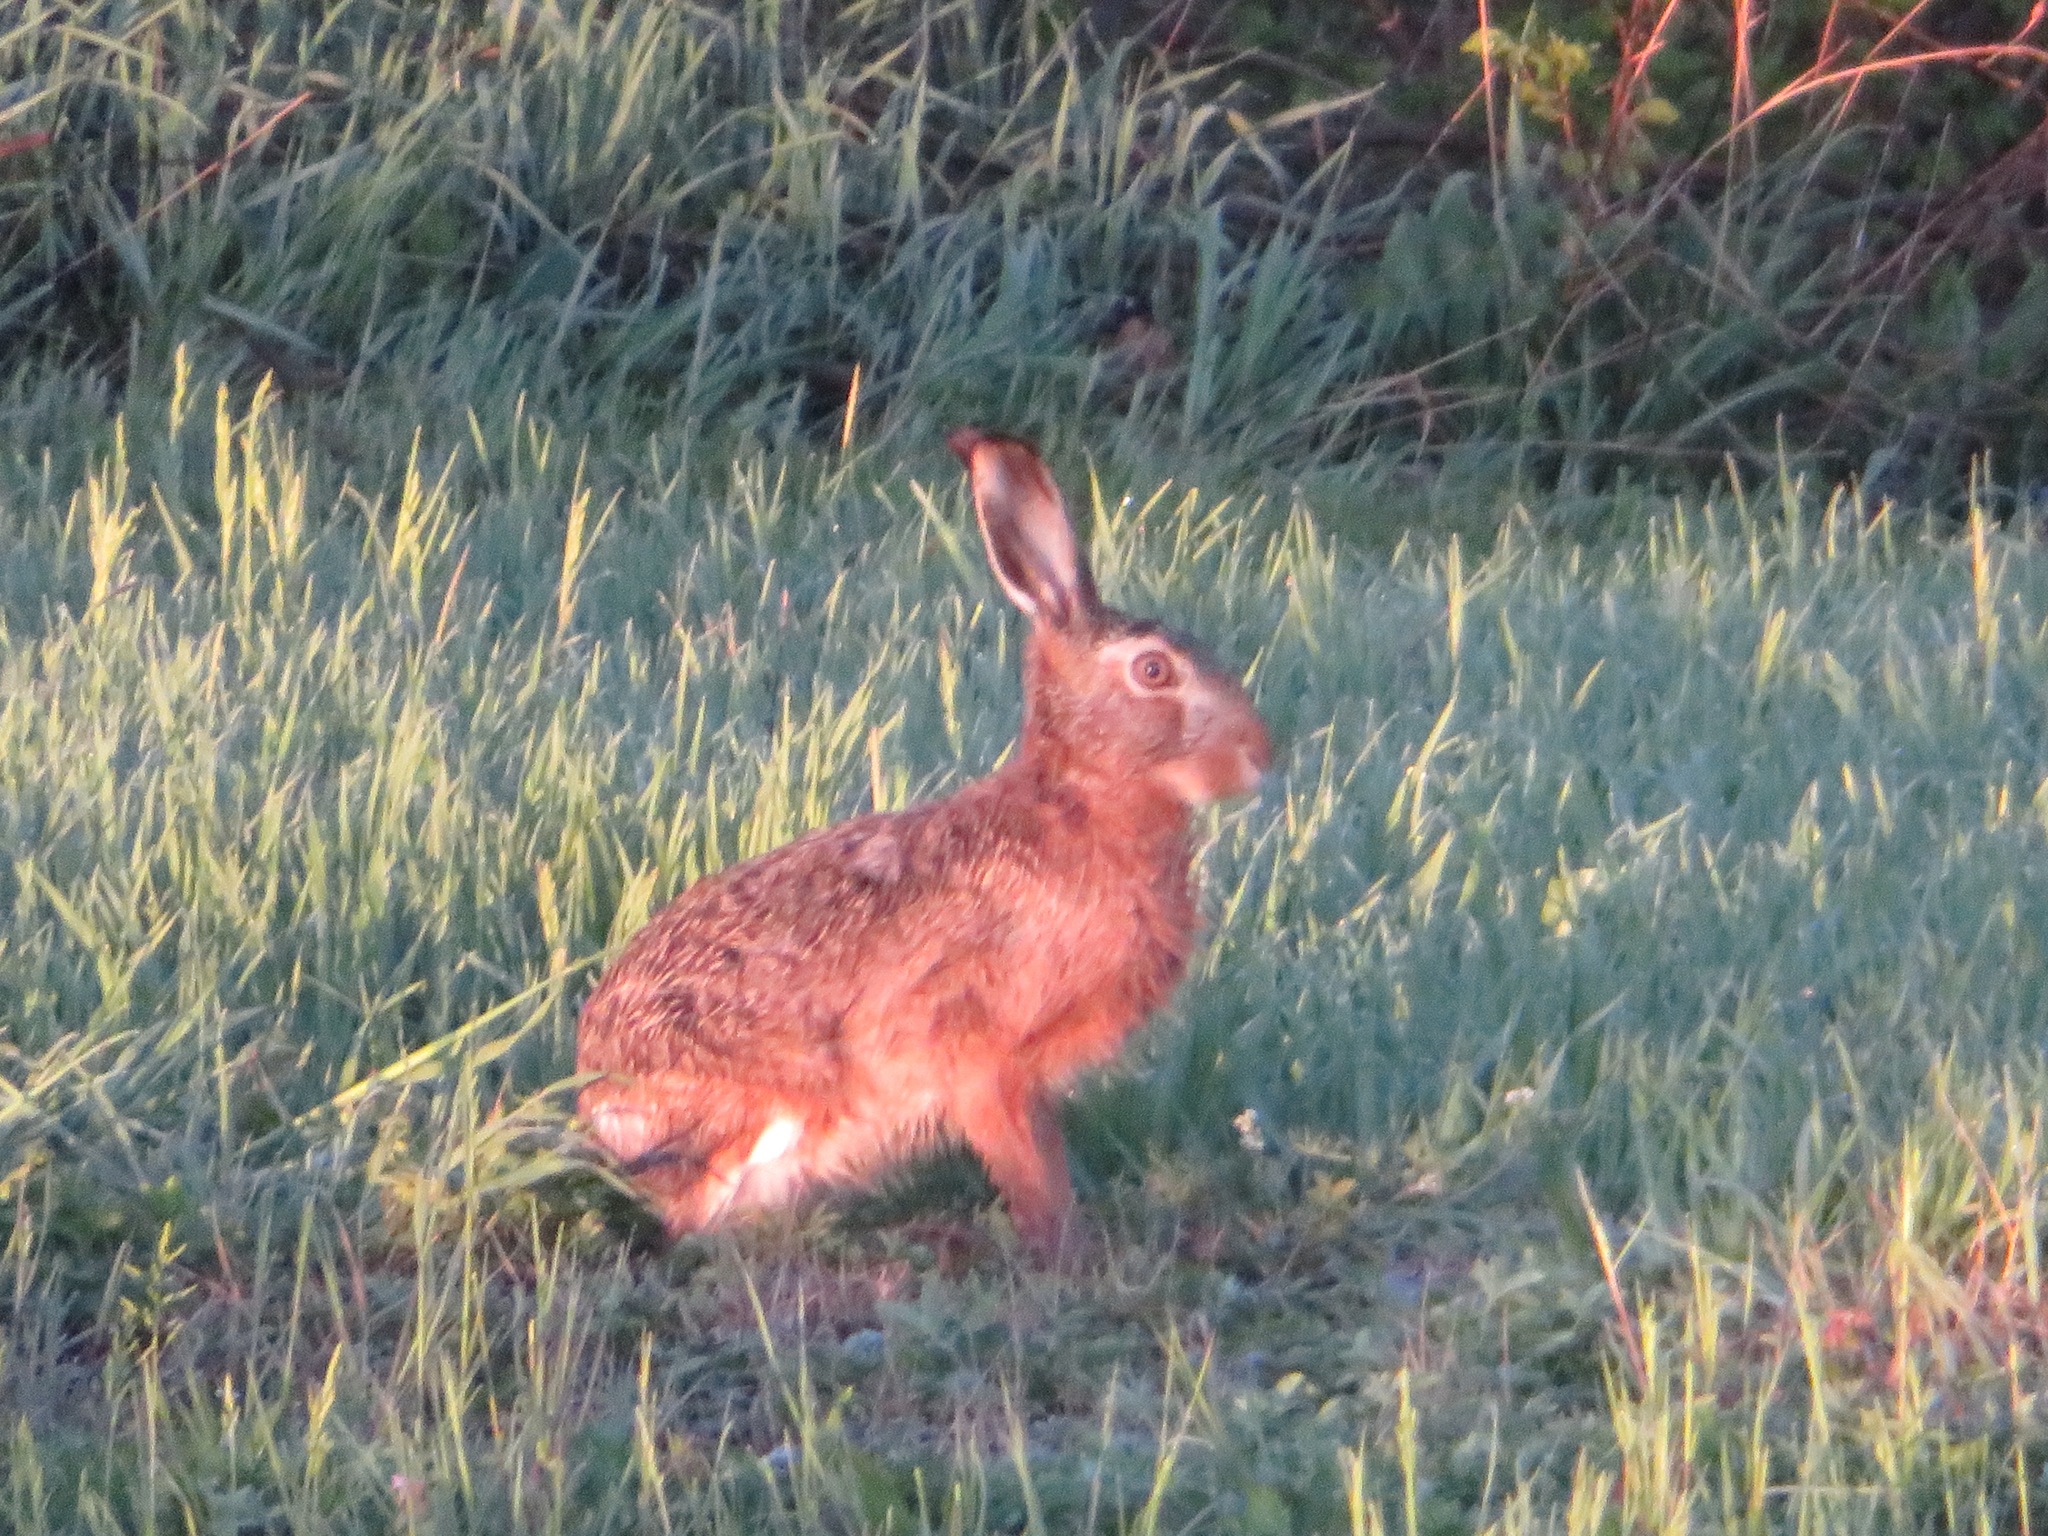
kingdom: Animalia
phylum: Chordata
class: Mammalia
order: Lagomorpha
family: Leporidae
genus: Lepus
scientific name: Lepus europaeus
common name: European hare
